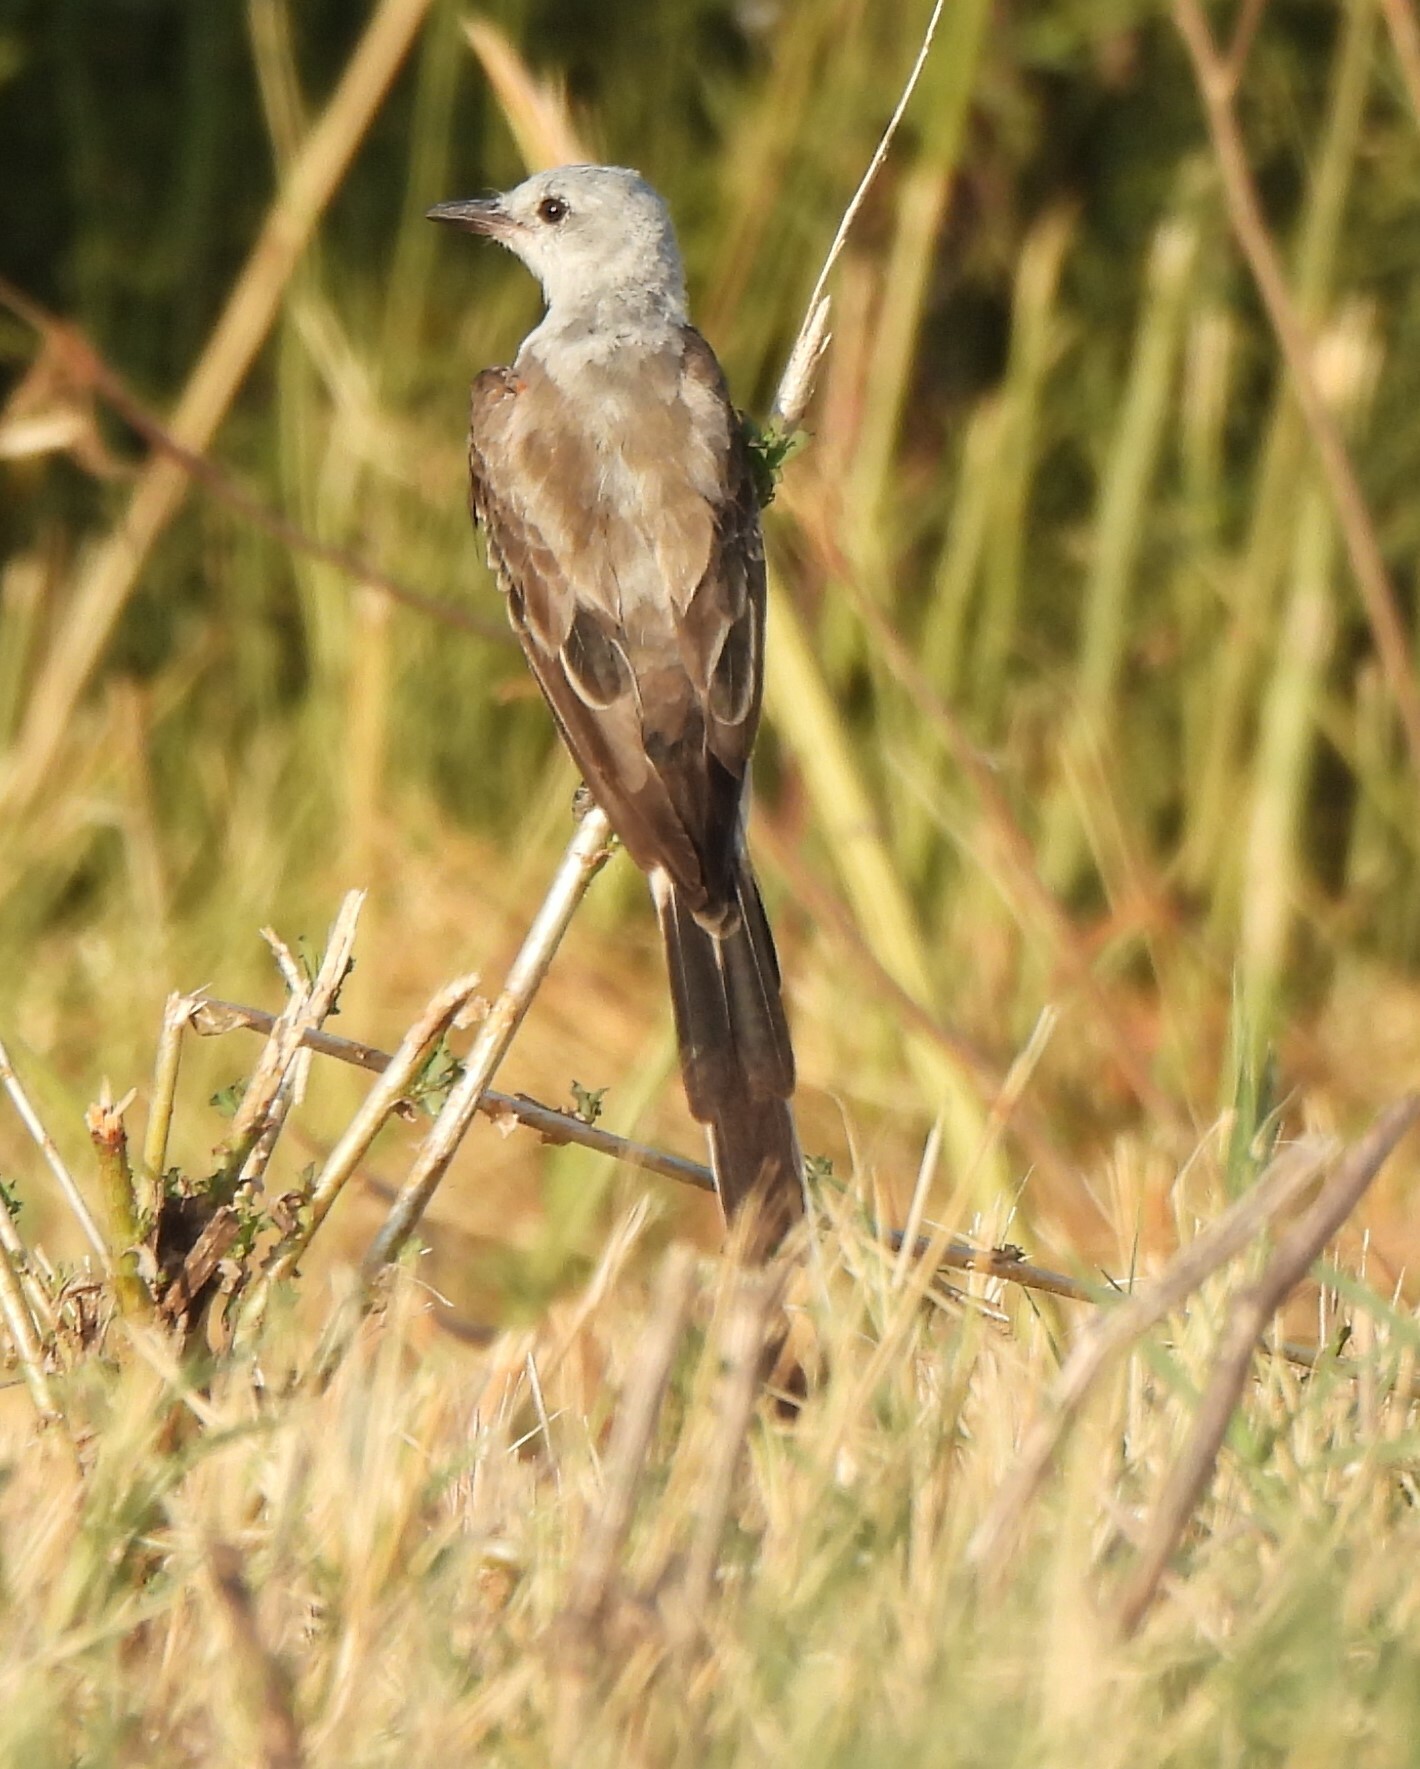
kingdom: Animalia
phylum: Chordata
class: Aves
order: Passeriformes
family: Tyrannidae
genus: Tyrannus
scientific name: Tyrannus forficatus
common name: Scissor-tailed flycatcher
